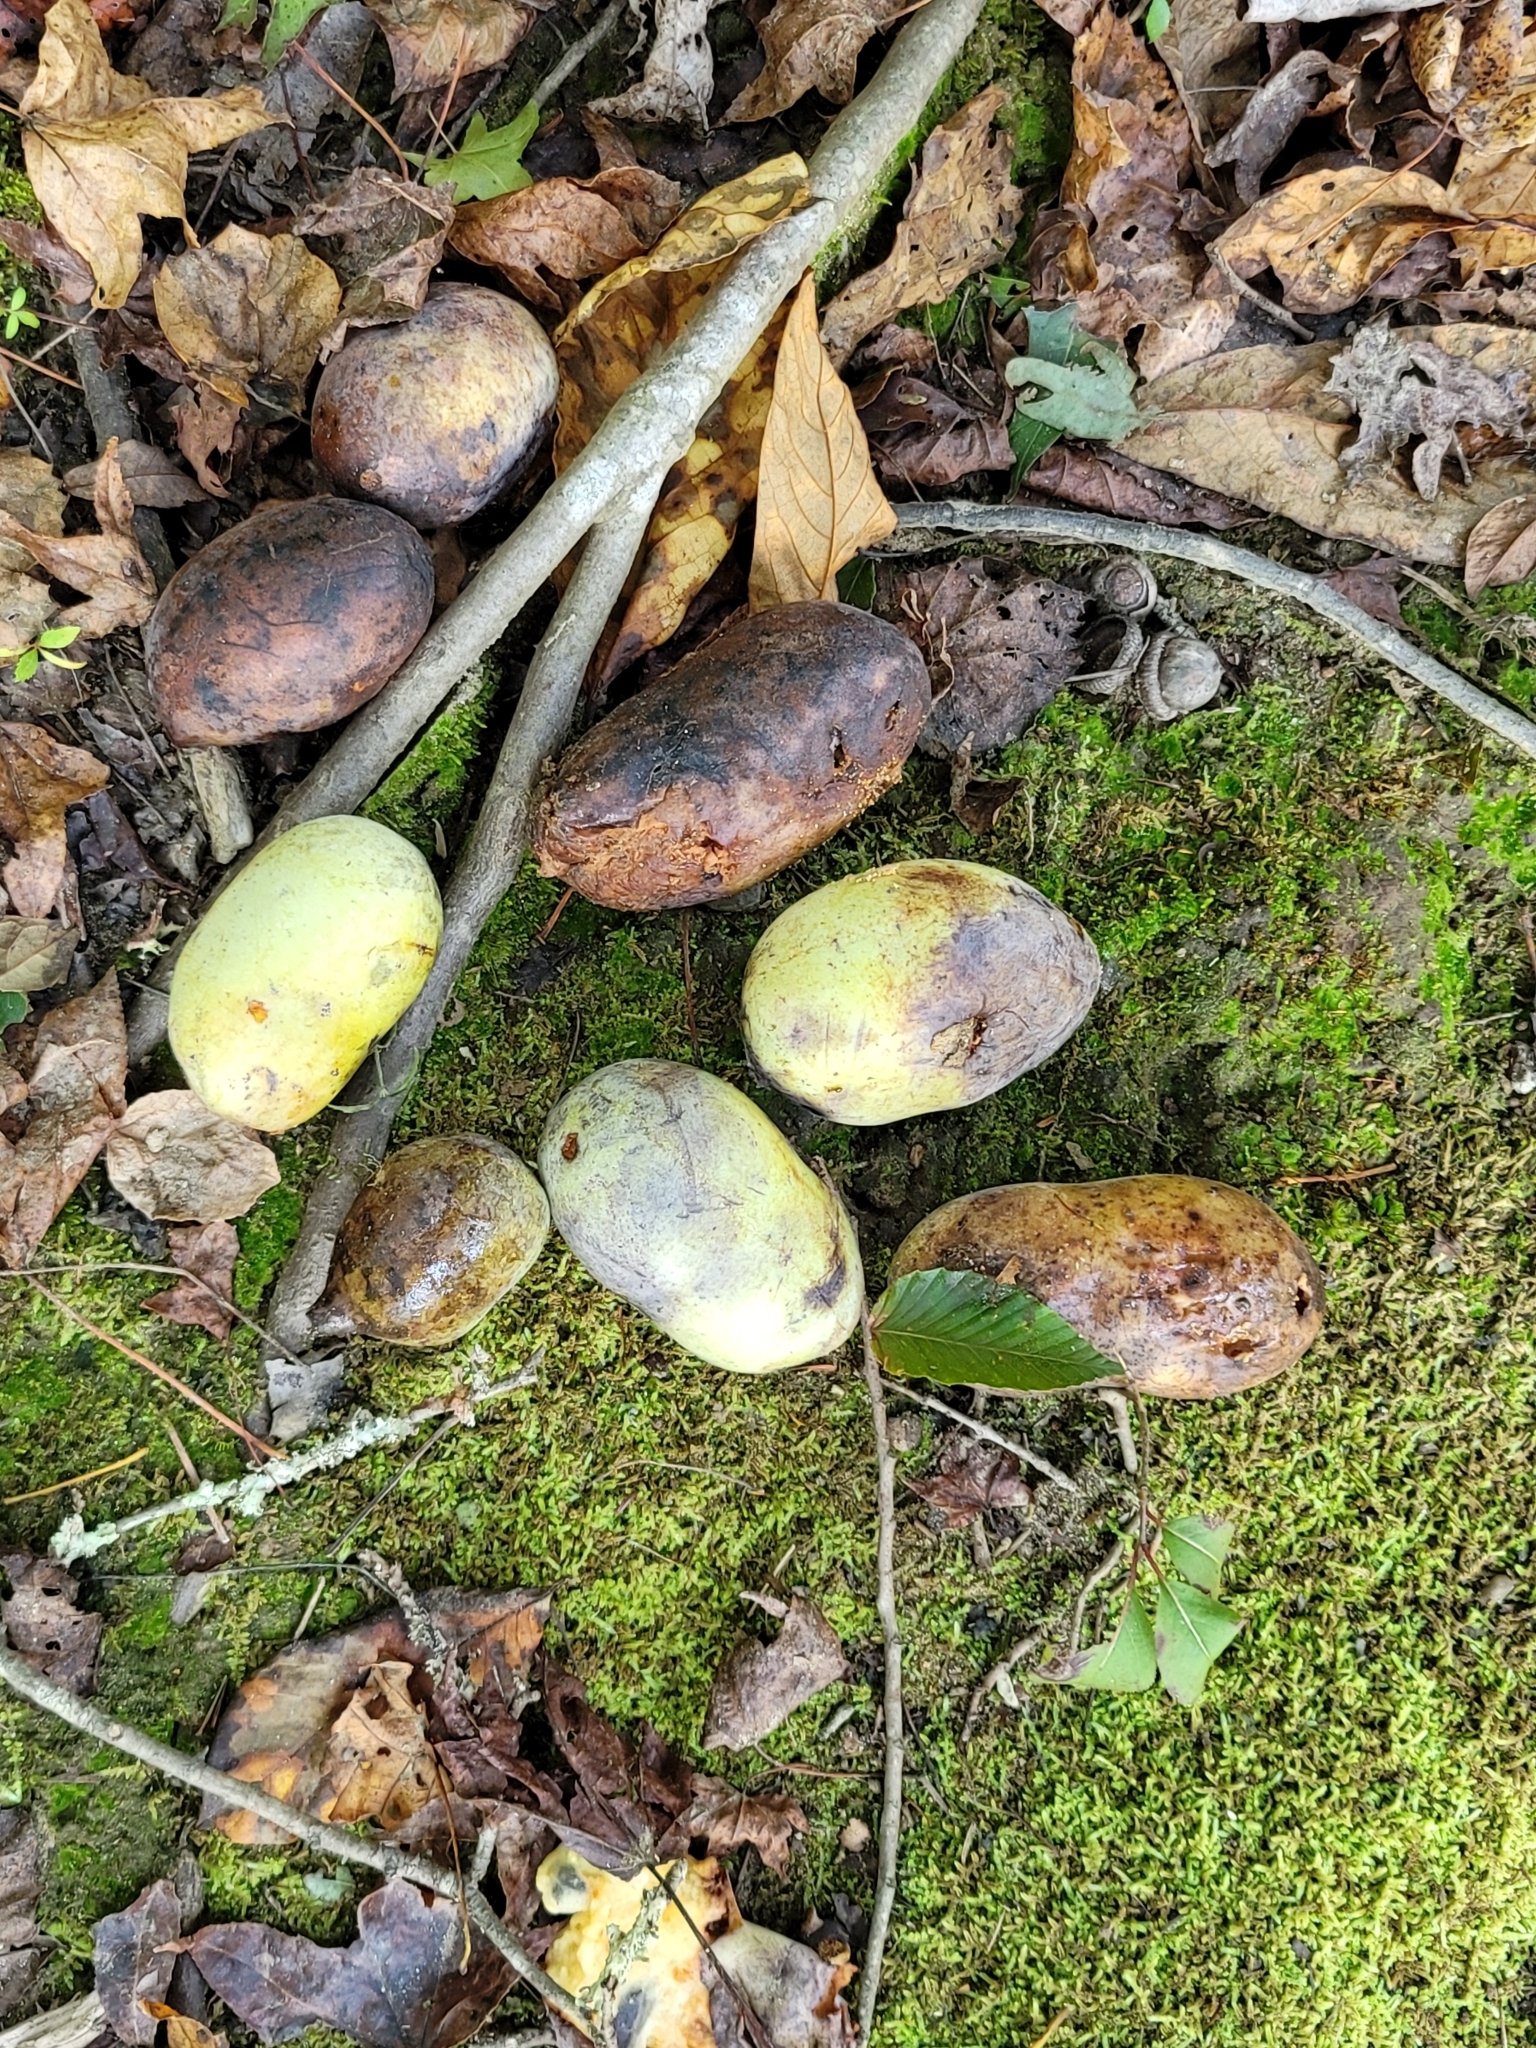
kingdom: Plantae
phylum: Tracheophyta
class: Magnoliopsida
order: Magnoliales
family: Annonaceae
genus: Asimina
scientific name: Asimina triloba
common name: Dog-banana
